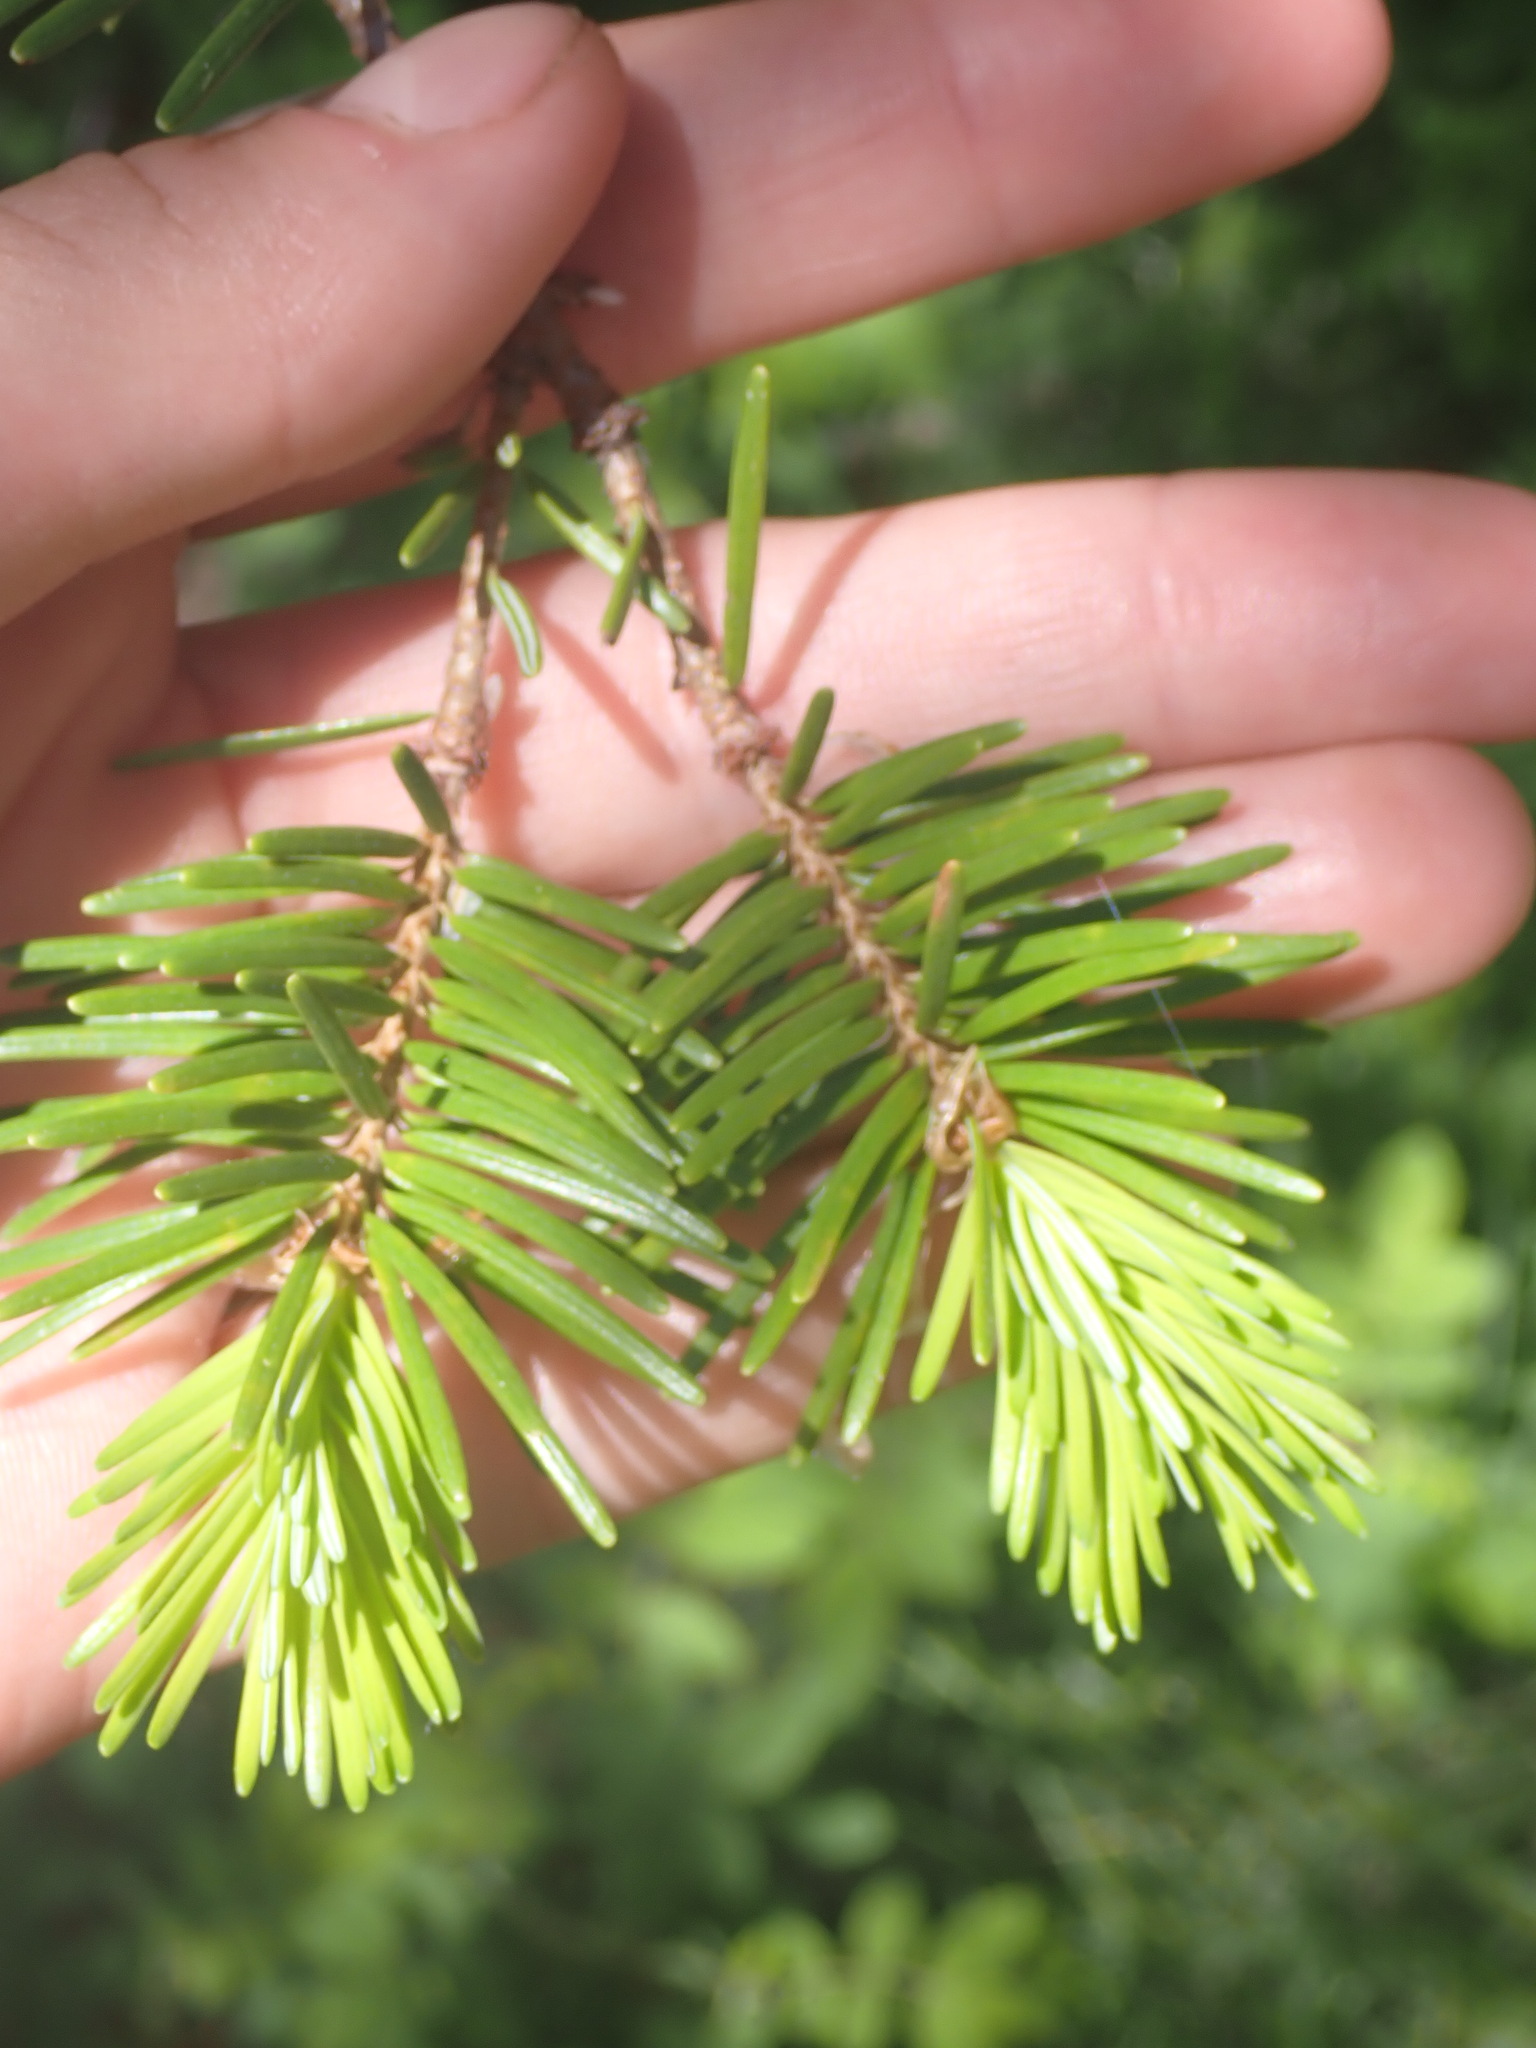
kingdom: Plantae
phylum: Tracheophyta
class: Pinopsida
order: Pinales
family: Pinaceae
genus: Pseudotsuga
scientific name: Pseudotsuga menziesii
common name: Douglas fir
